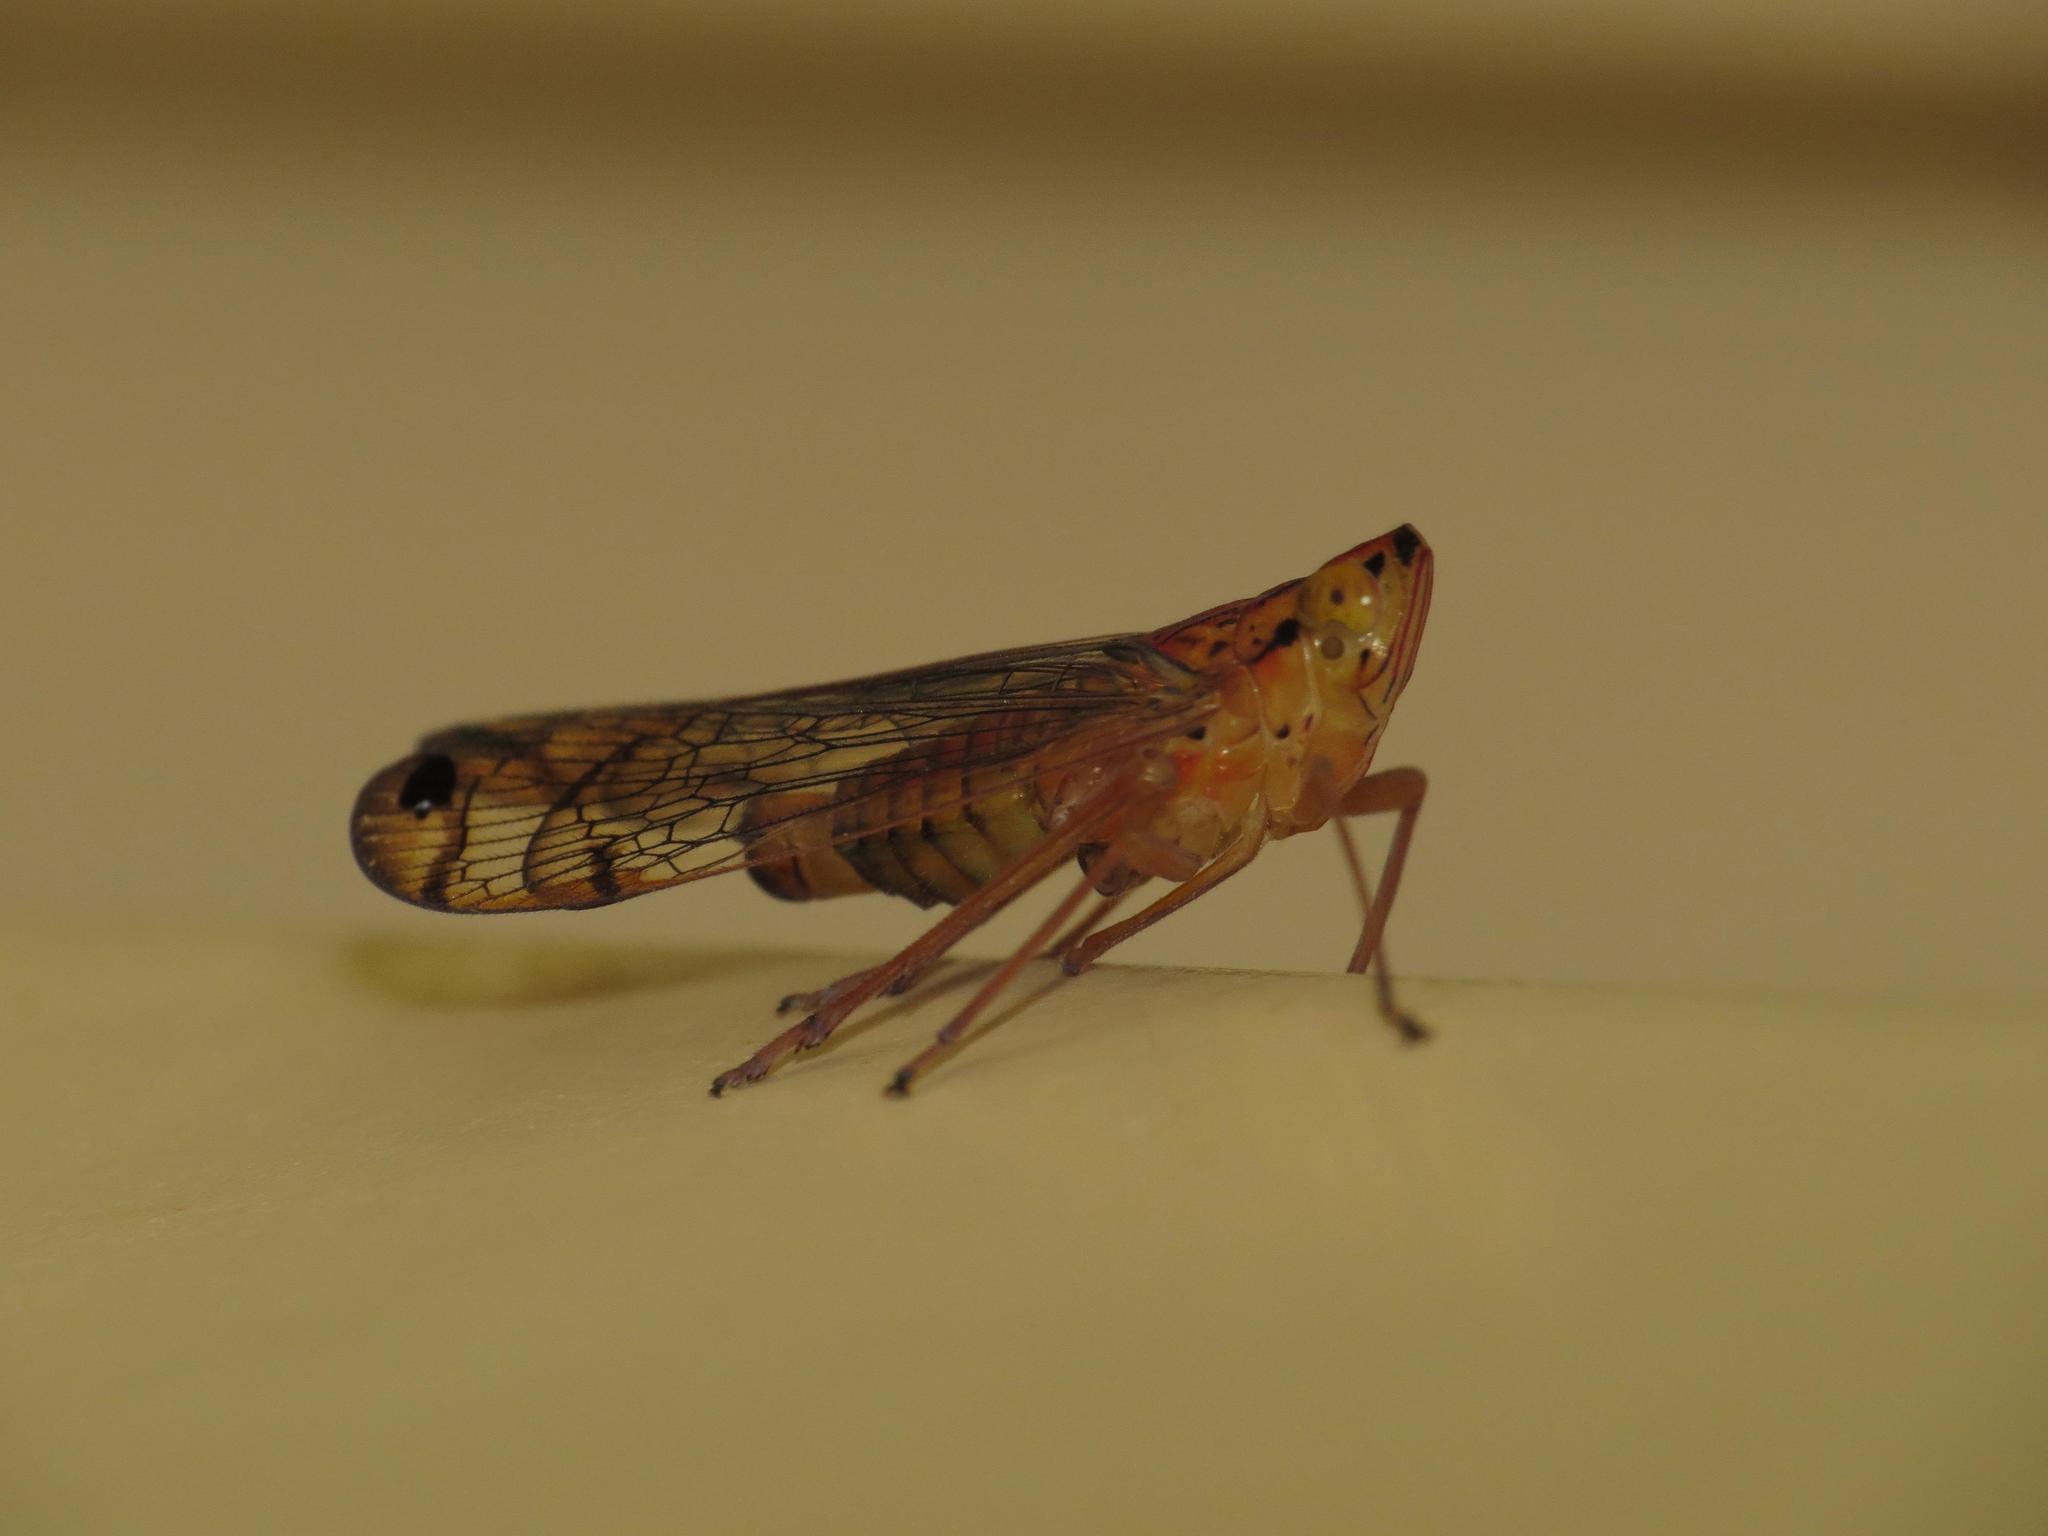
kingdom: Animalia
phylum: Arthropoda
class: Insecta
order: Hemiptera
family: Lophopidae
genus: Magia
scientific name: Magia subocellata
